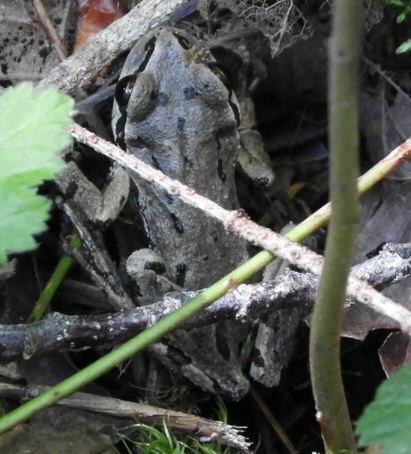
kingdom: Animalia
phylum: Chordata
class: Amphibia
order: Anura
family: Hylidae
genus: Pseudacris
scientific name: Pseudacris regilla
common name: Pacific chorus frog
